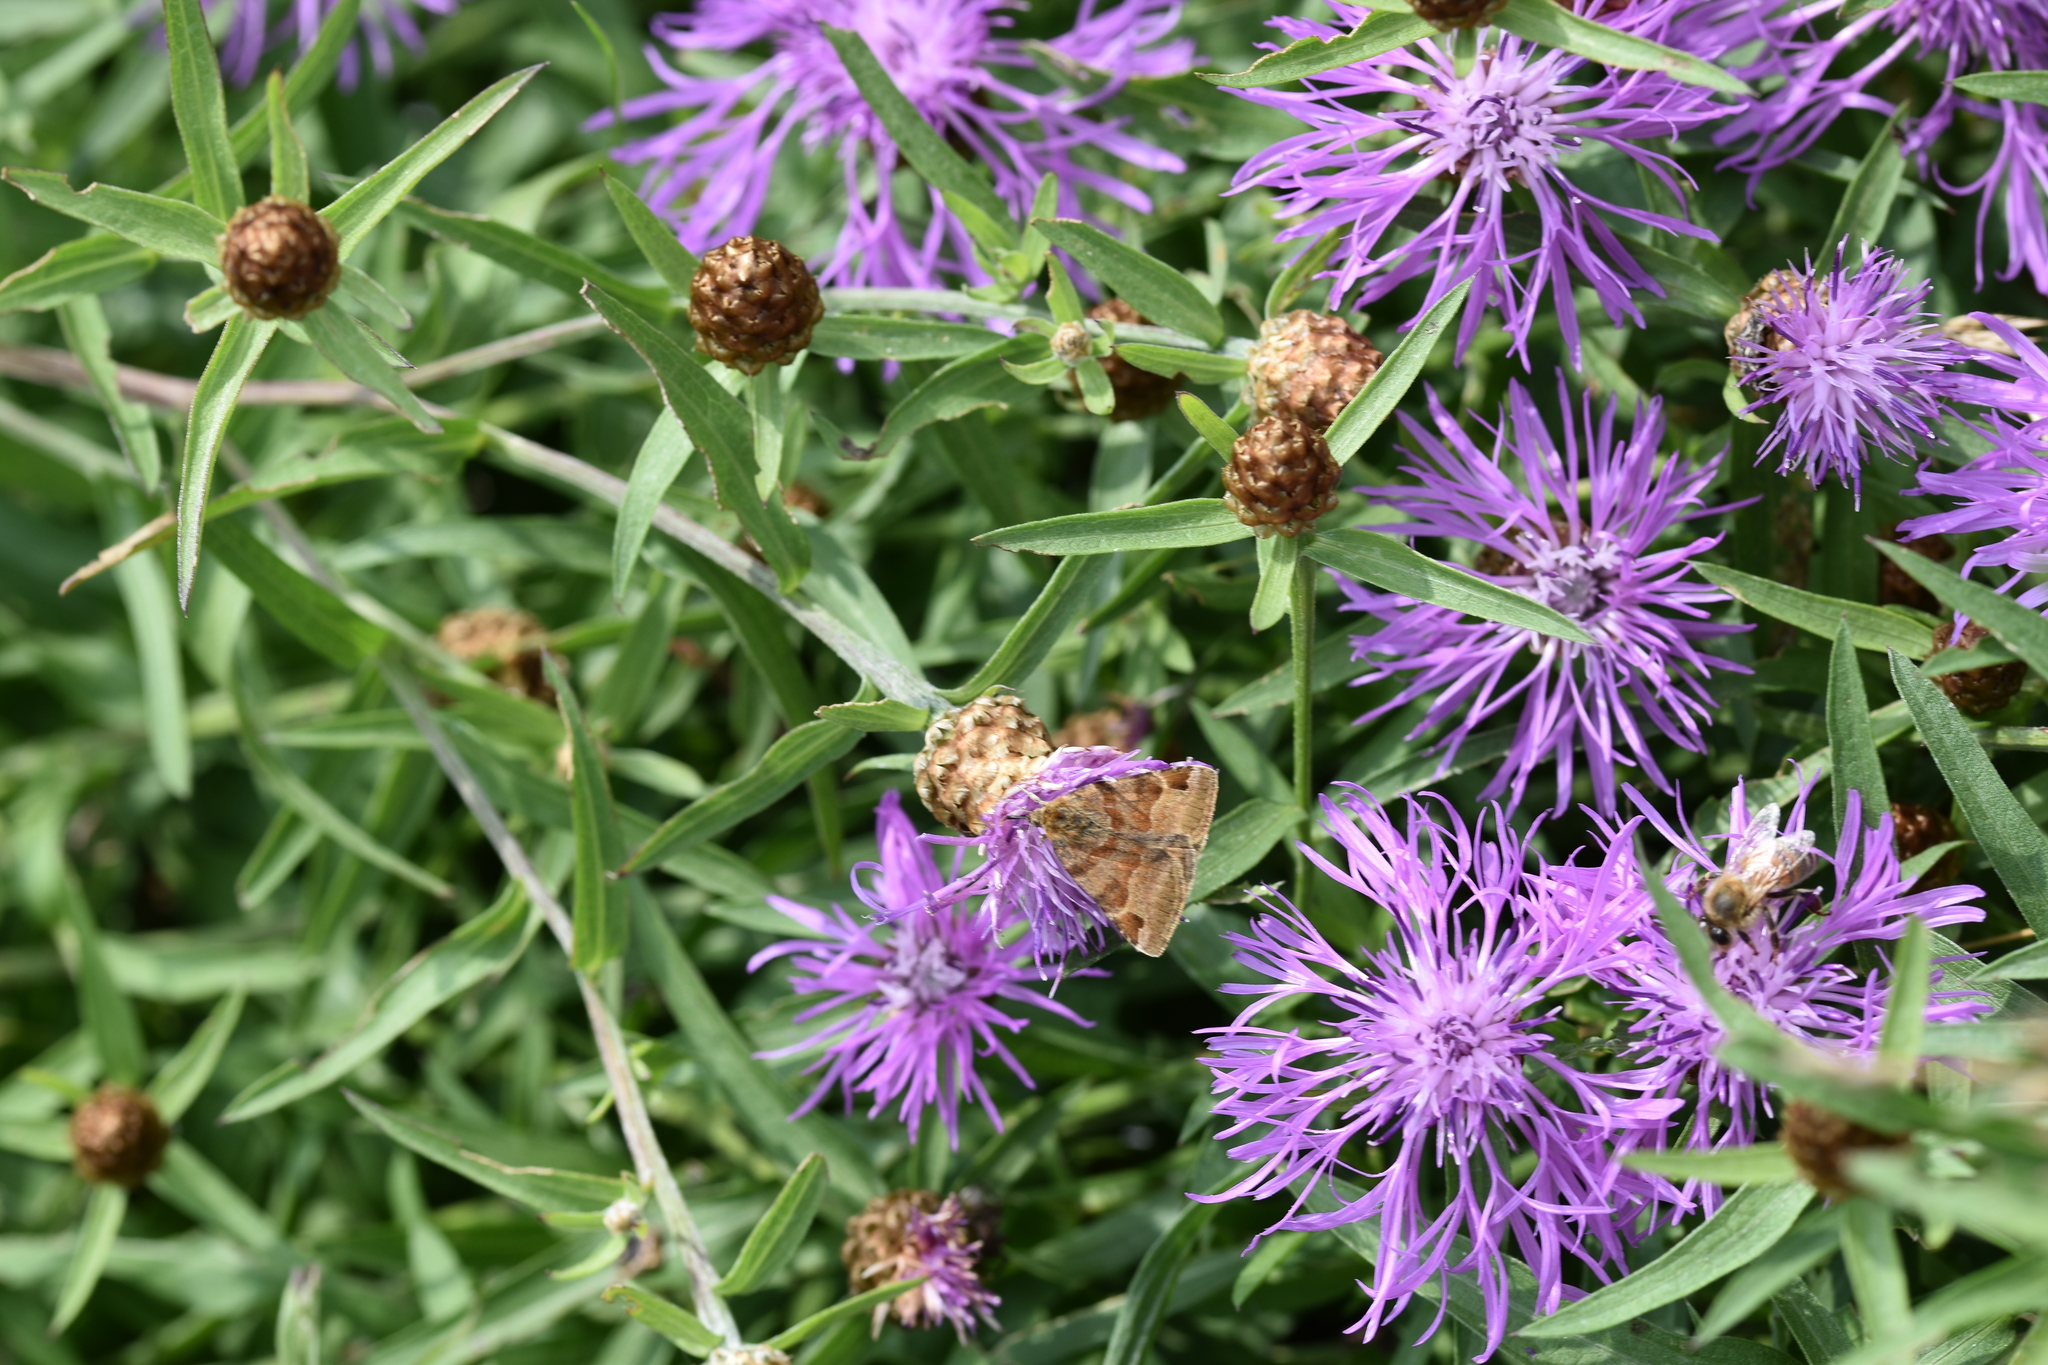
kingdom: Animalia
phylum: Arthropoda
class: Insecta
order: Lepidoptera
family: Erebidae
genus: Euclidia
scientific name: Euclidia glyphica
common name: Burnet companion
